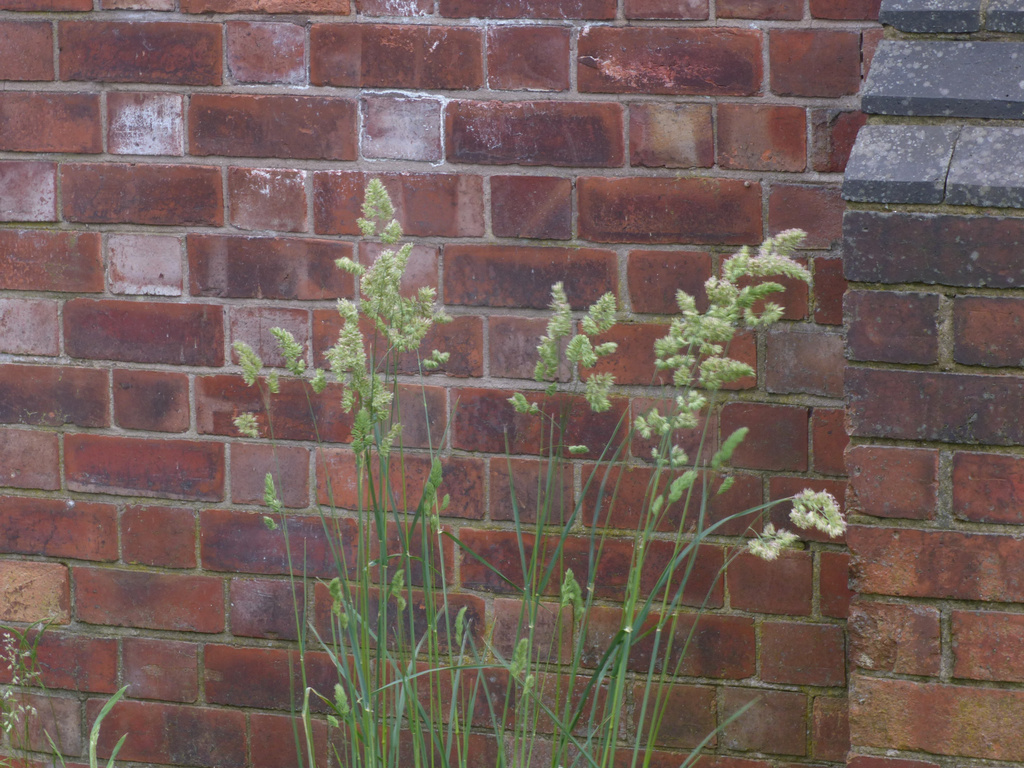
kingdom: Plantae
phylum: Tracheophyta
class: Liliopsida
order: Poales
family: Poaceae
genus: Dactylis
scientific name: Dactylis glomerata
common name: Orchardgrass
